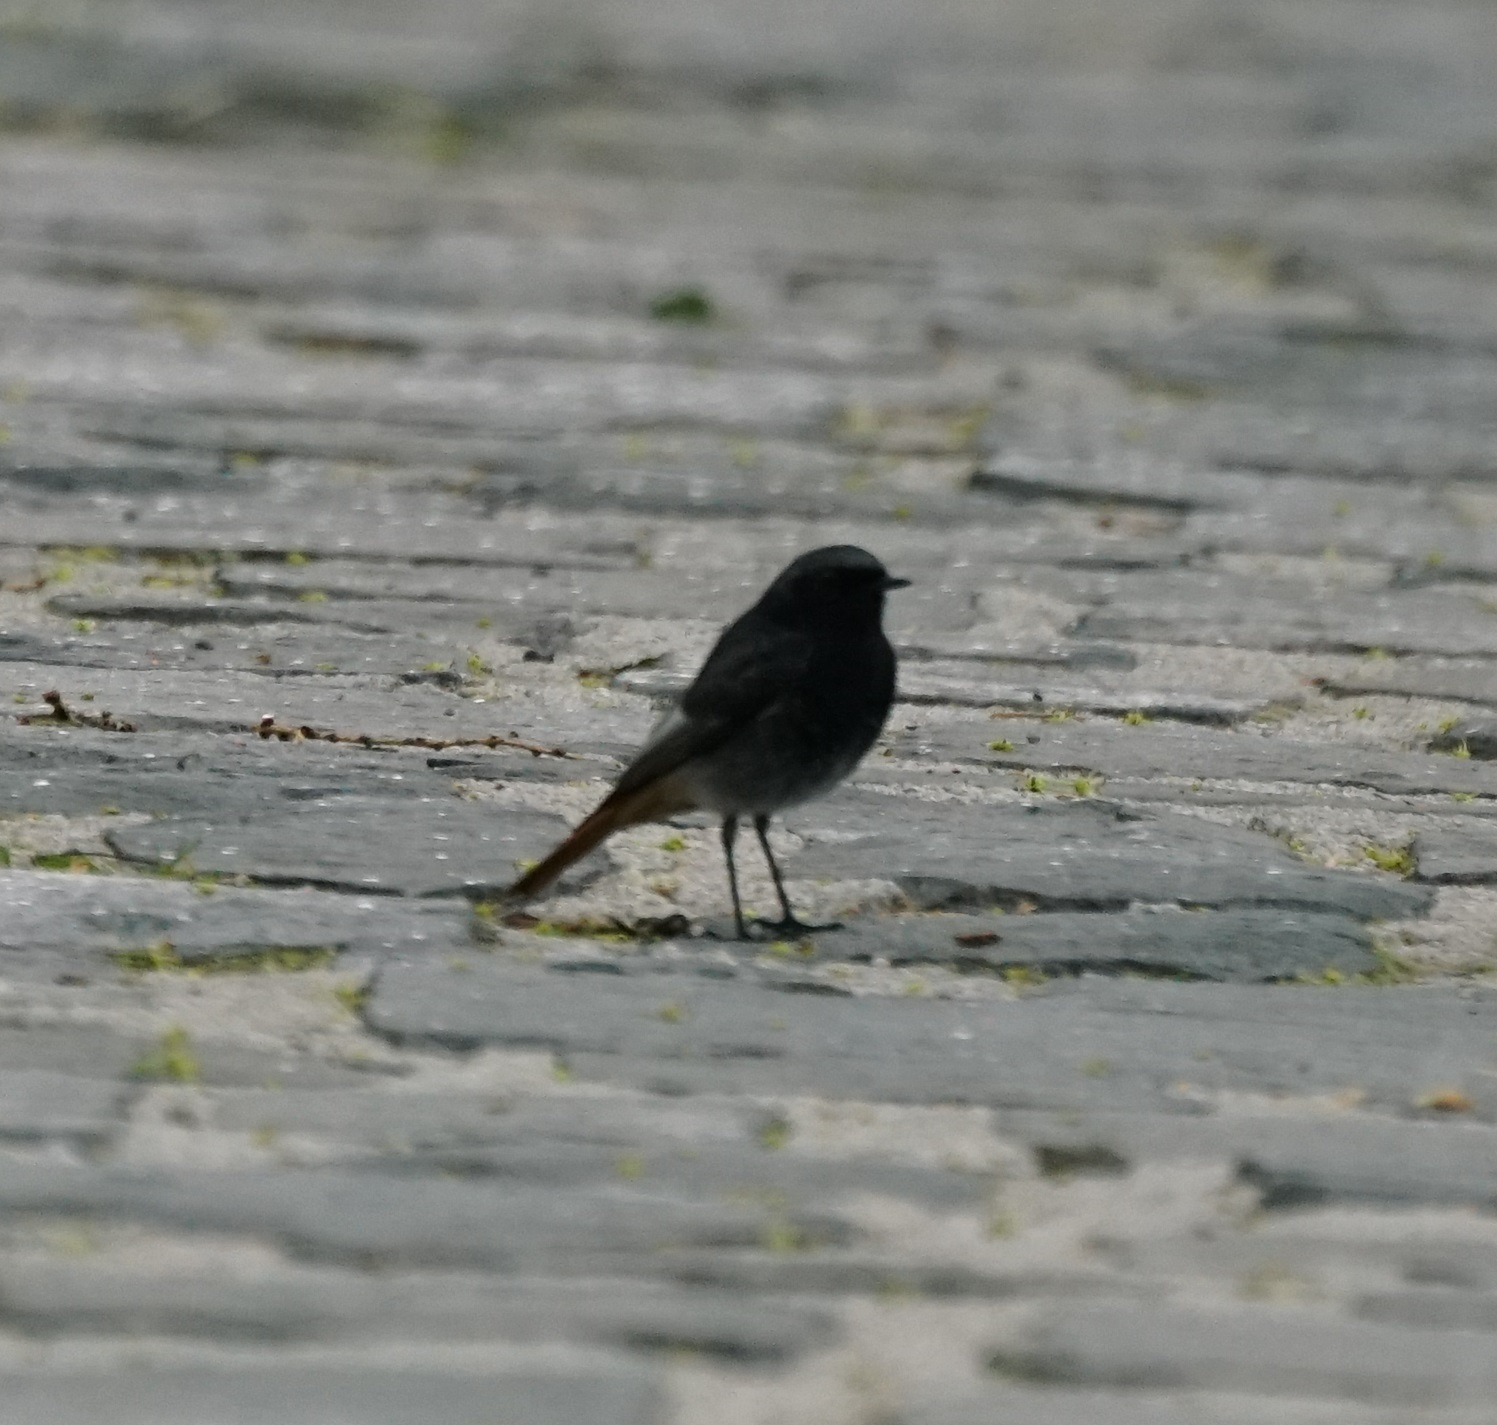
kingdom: Animalia
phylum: Chordata
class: Aves
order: Passeriformes
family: Muscicapidae
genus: Phoenicurus
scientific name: Phoenicurus ochruros
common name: Black redstart
